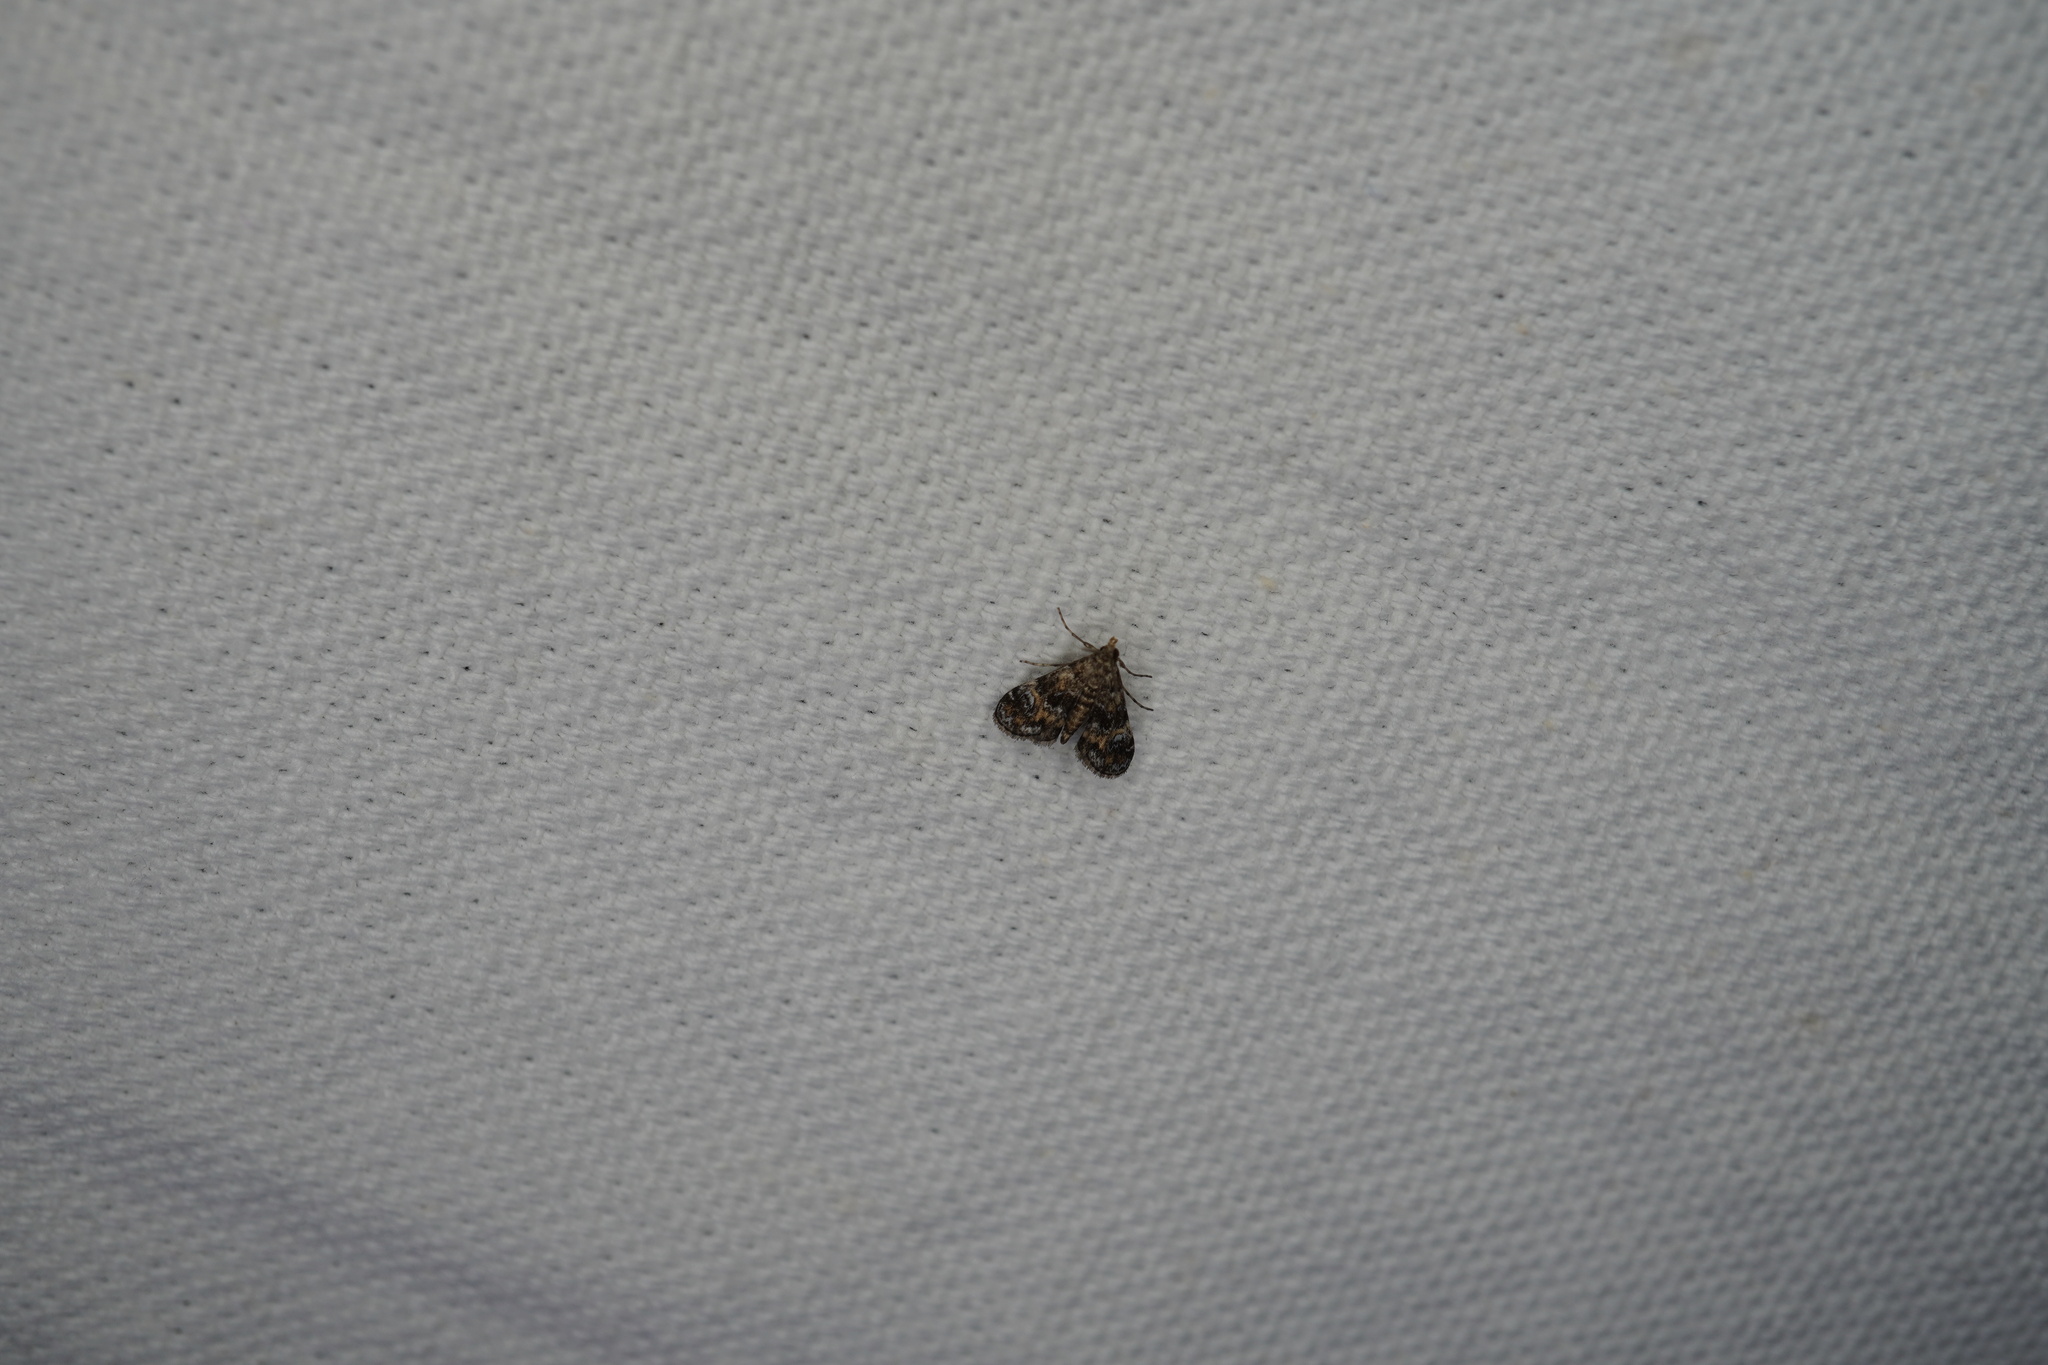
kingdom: Animalia
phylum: Arthropoda
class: Insecta
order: Lepidoptera
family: Crambidae
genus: Elophila
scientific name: Elophila obliteralis
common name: Waterlily leafcutter moth
